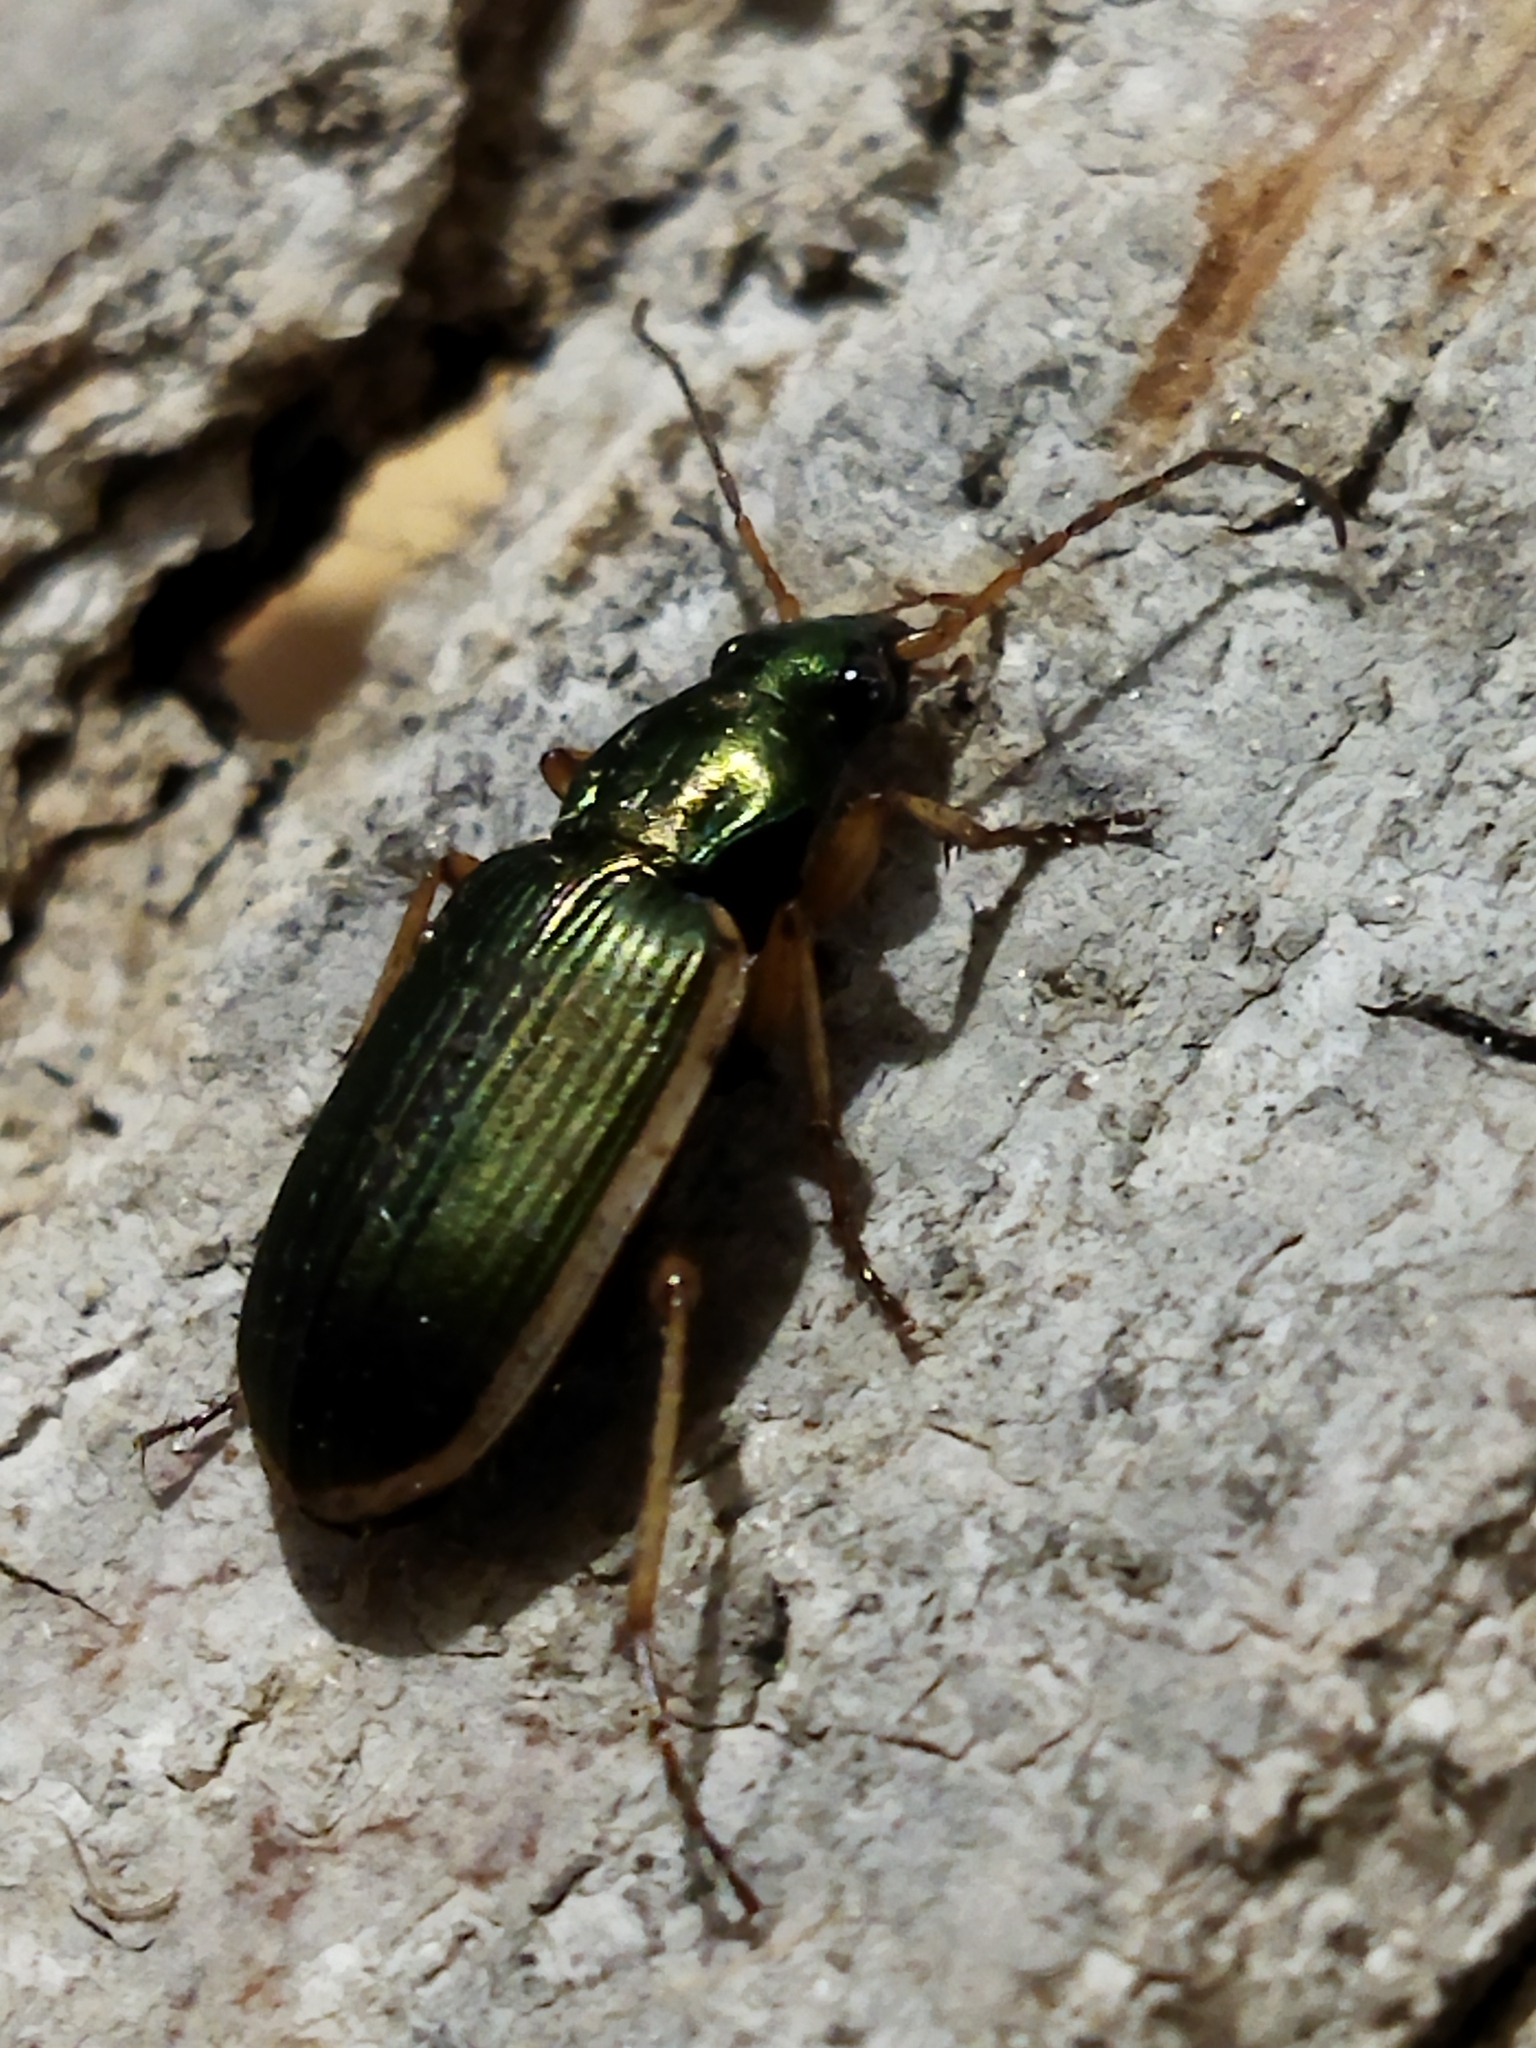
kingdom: Animalia
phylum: Arthropoda
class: Insecta
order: Coleoptera
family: Carabidae
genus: Chlaenius
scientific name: Chlaenius spoliatus
